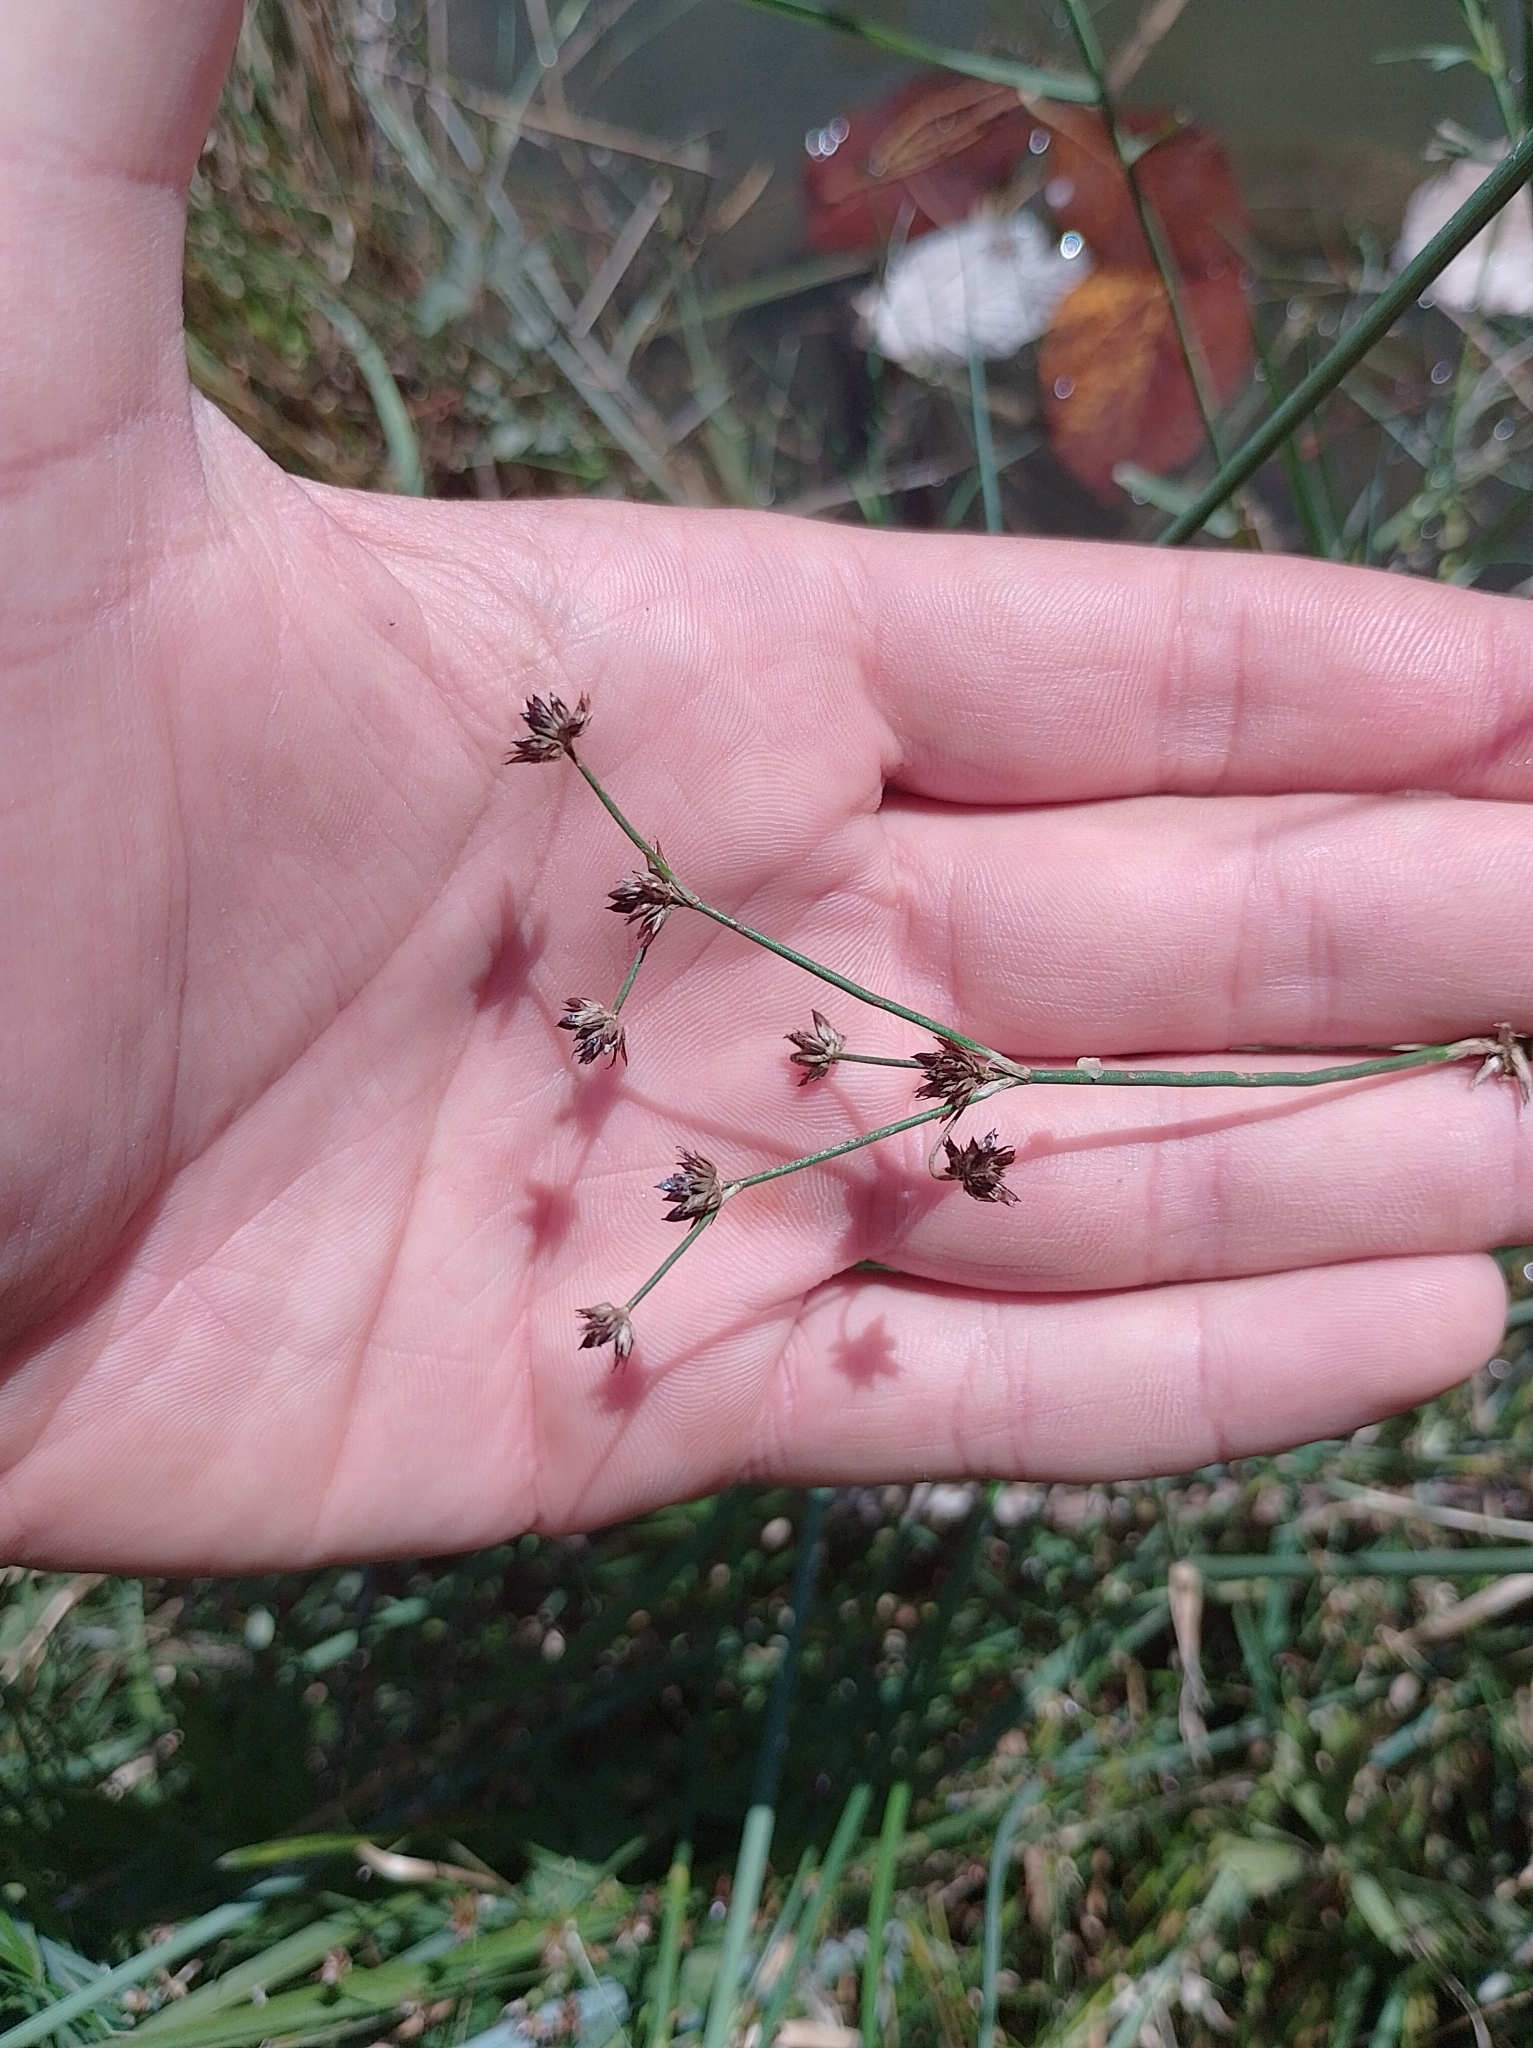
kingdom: Plantae
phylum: Tracheophyta
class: Liliopsida
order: Poales
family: Juncaceae
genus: Juncus
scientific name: Juncus articulatus
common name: Jointed rush
